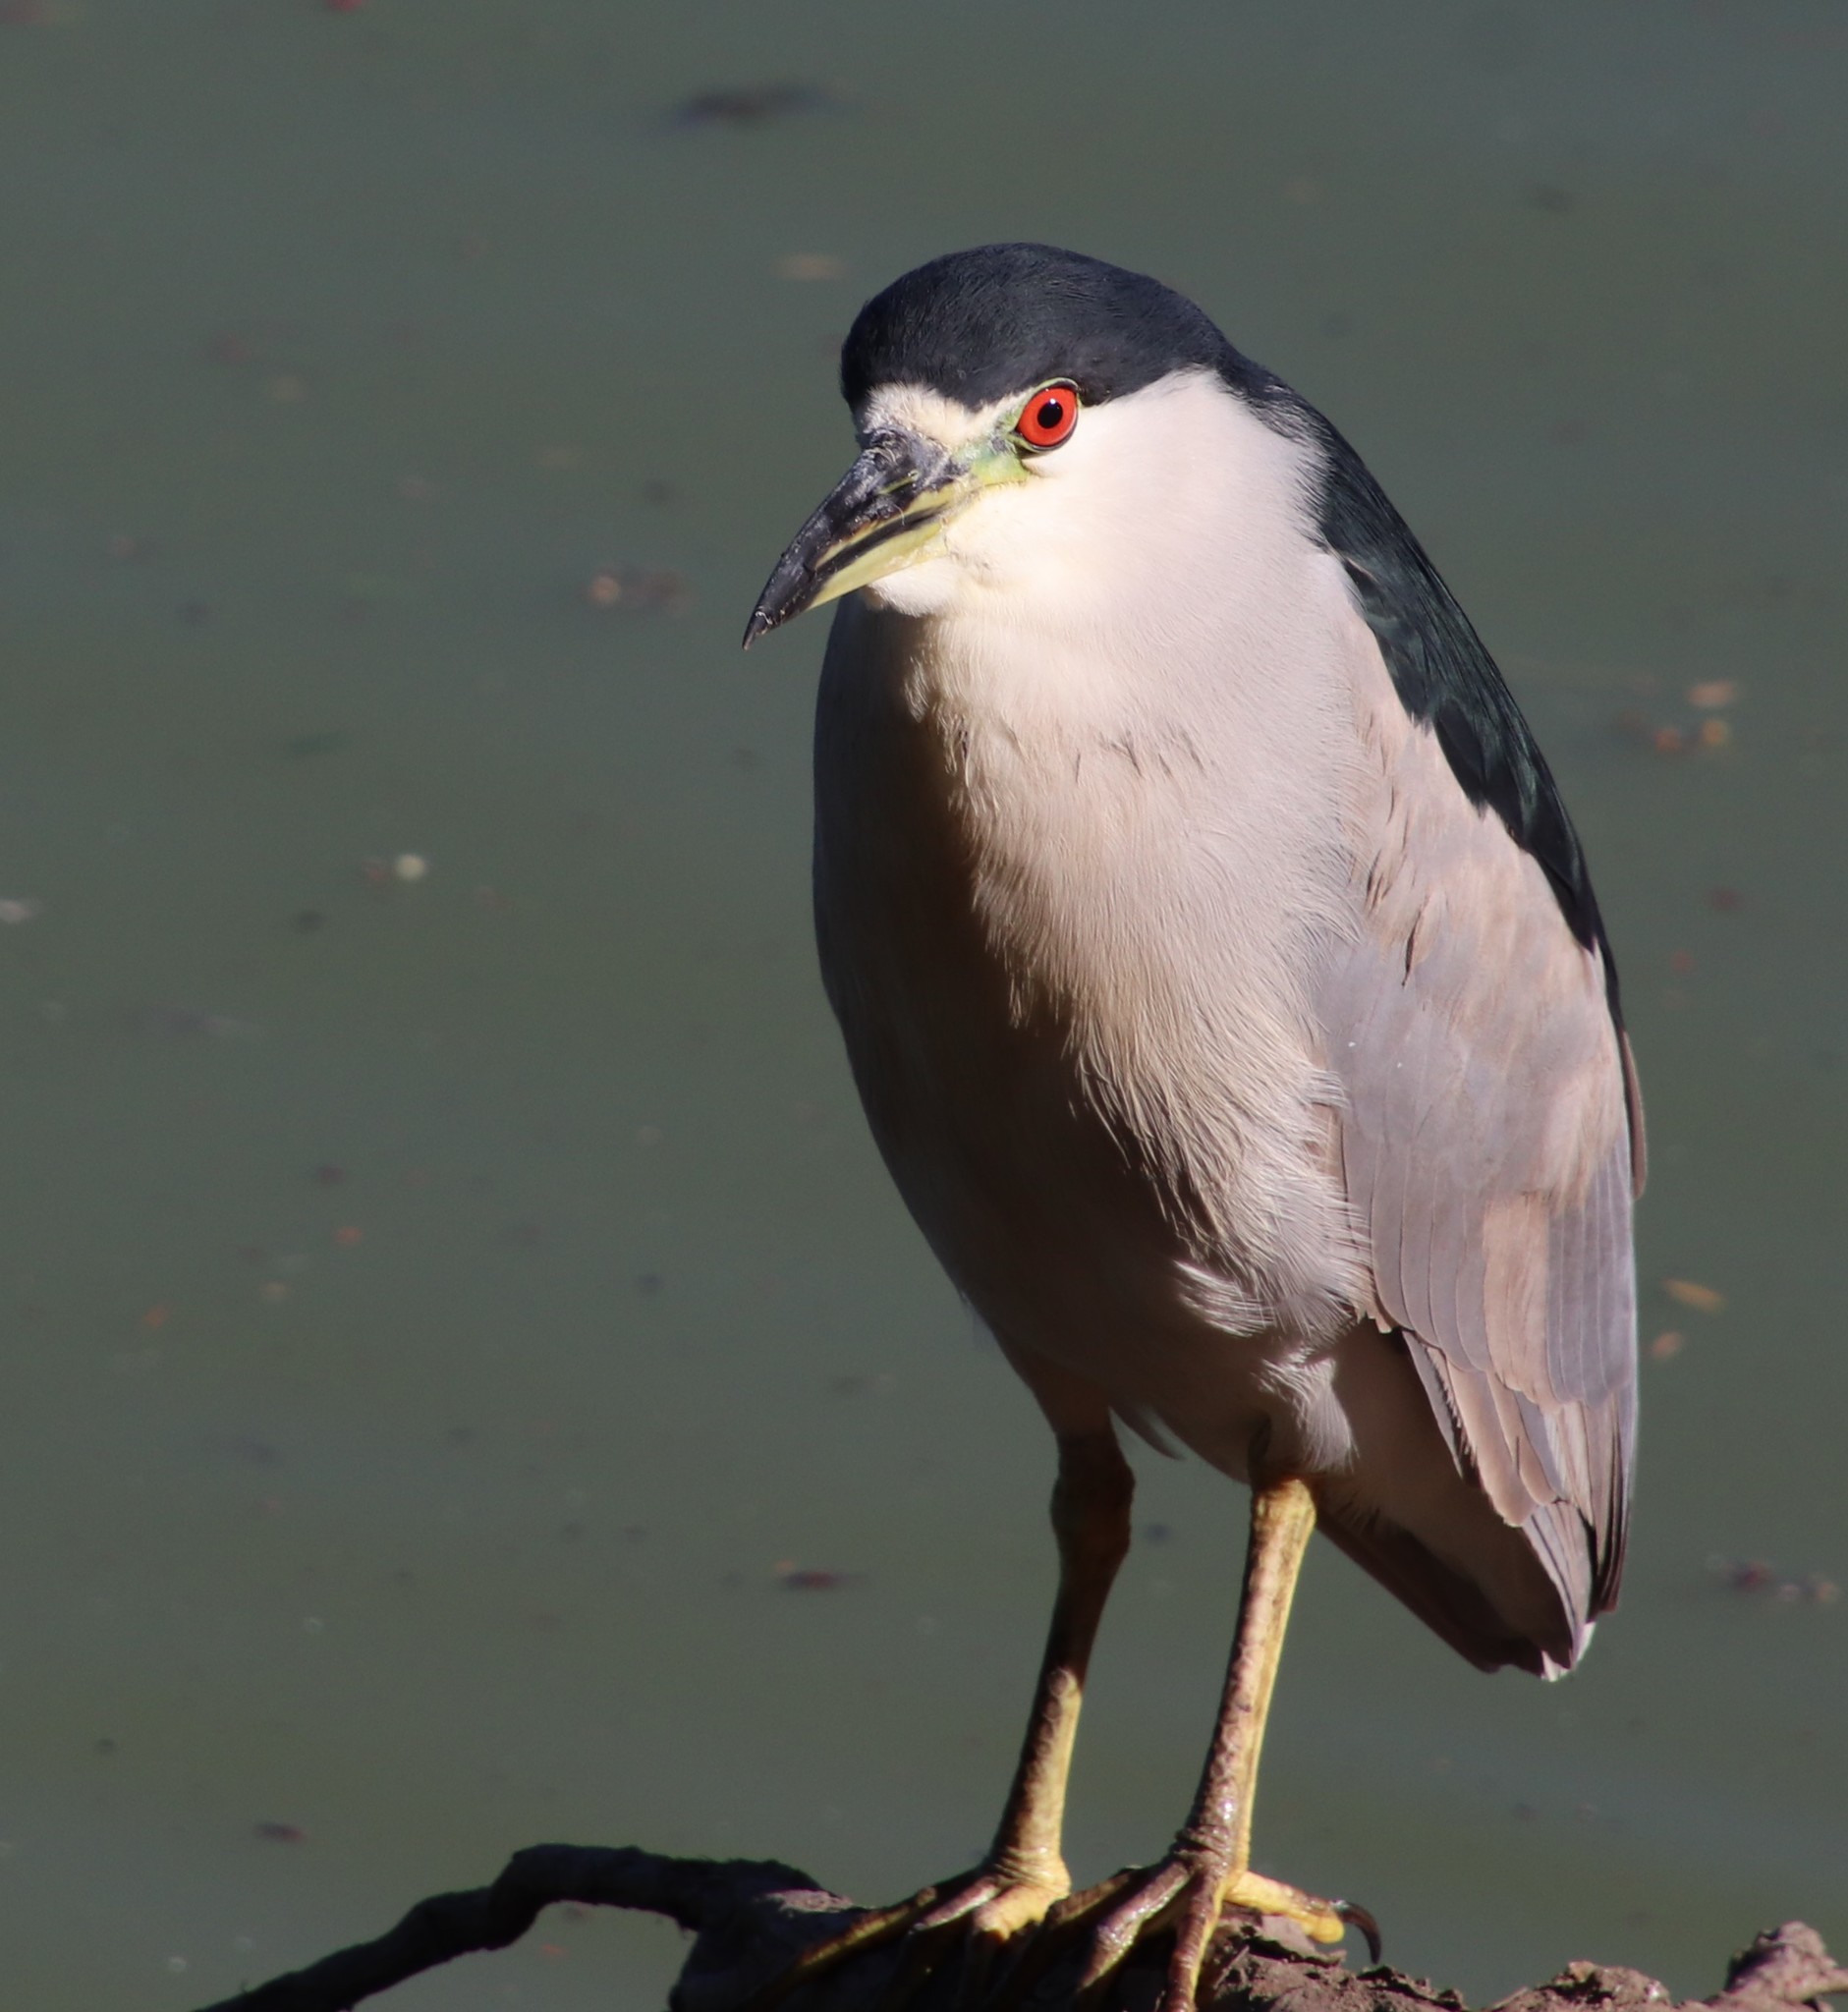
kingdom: Animalia
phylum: Chordata
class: Aves
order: Pelecaniformes
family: Ardeidae
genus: Nycticorax
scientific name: Nycticorax nycticorax
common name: Black-crowned night heron
